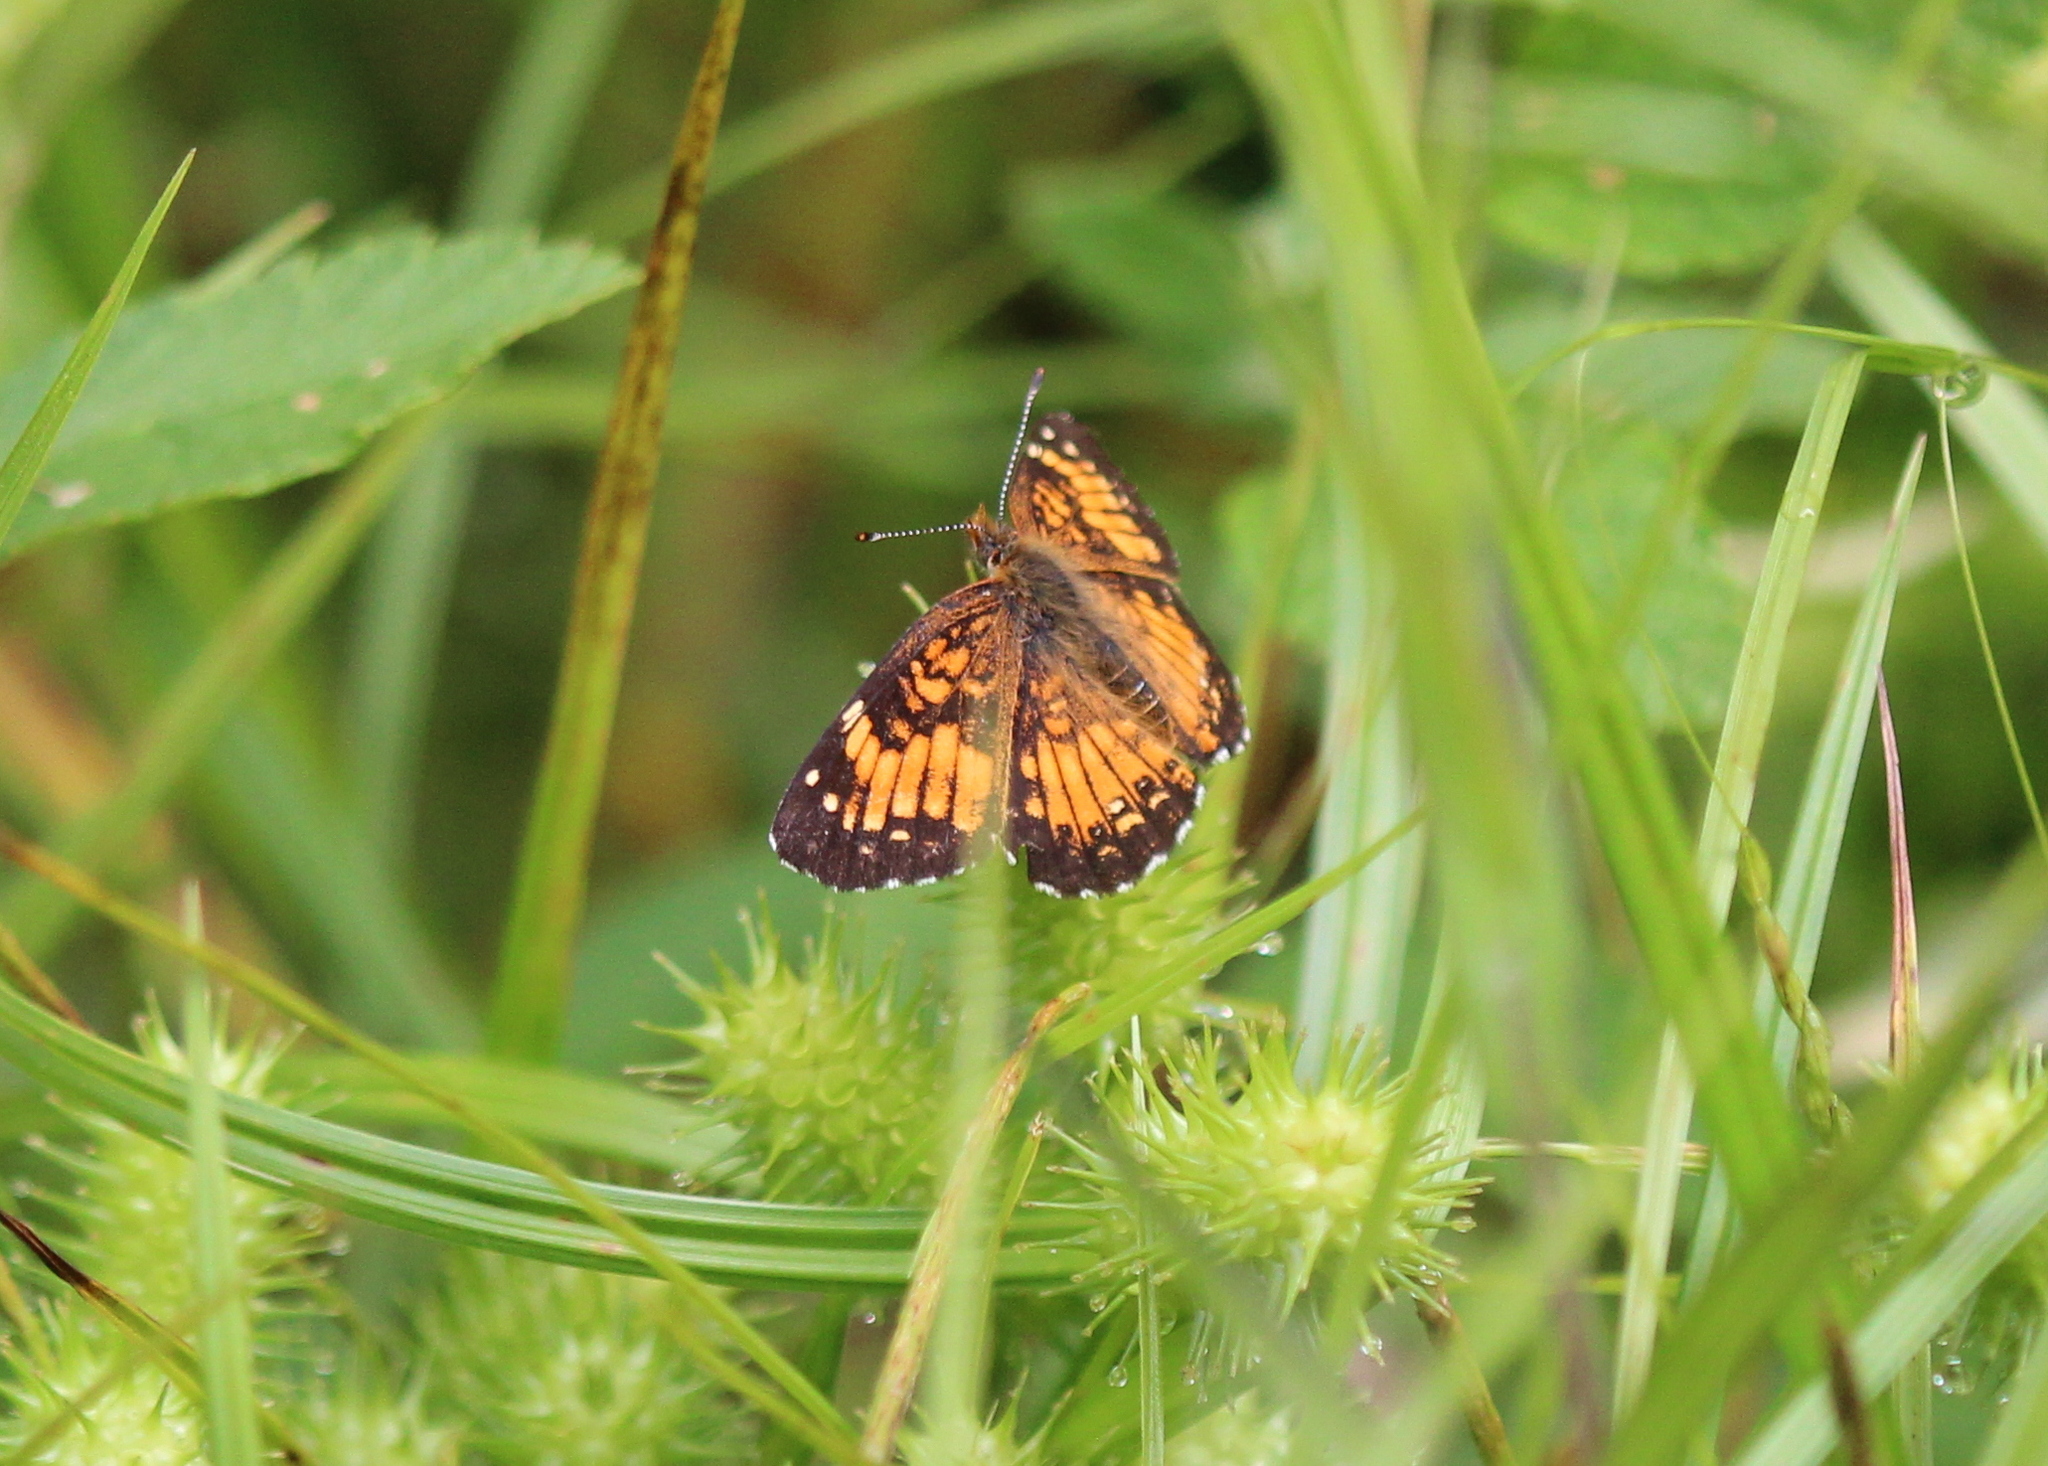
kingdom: Animalia
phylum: Arthropoda
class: Insecta
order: Lepidoptera
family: Nymphalidae
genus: Chlosyne
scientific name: Chlosyne harrisii
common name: Harris's checkerspot
